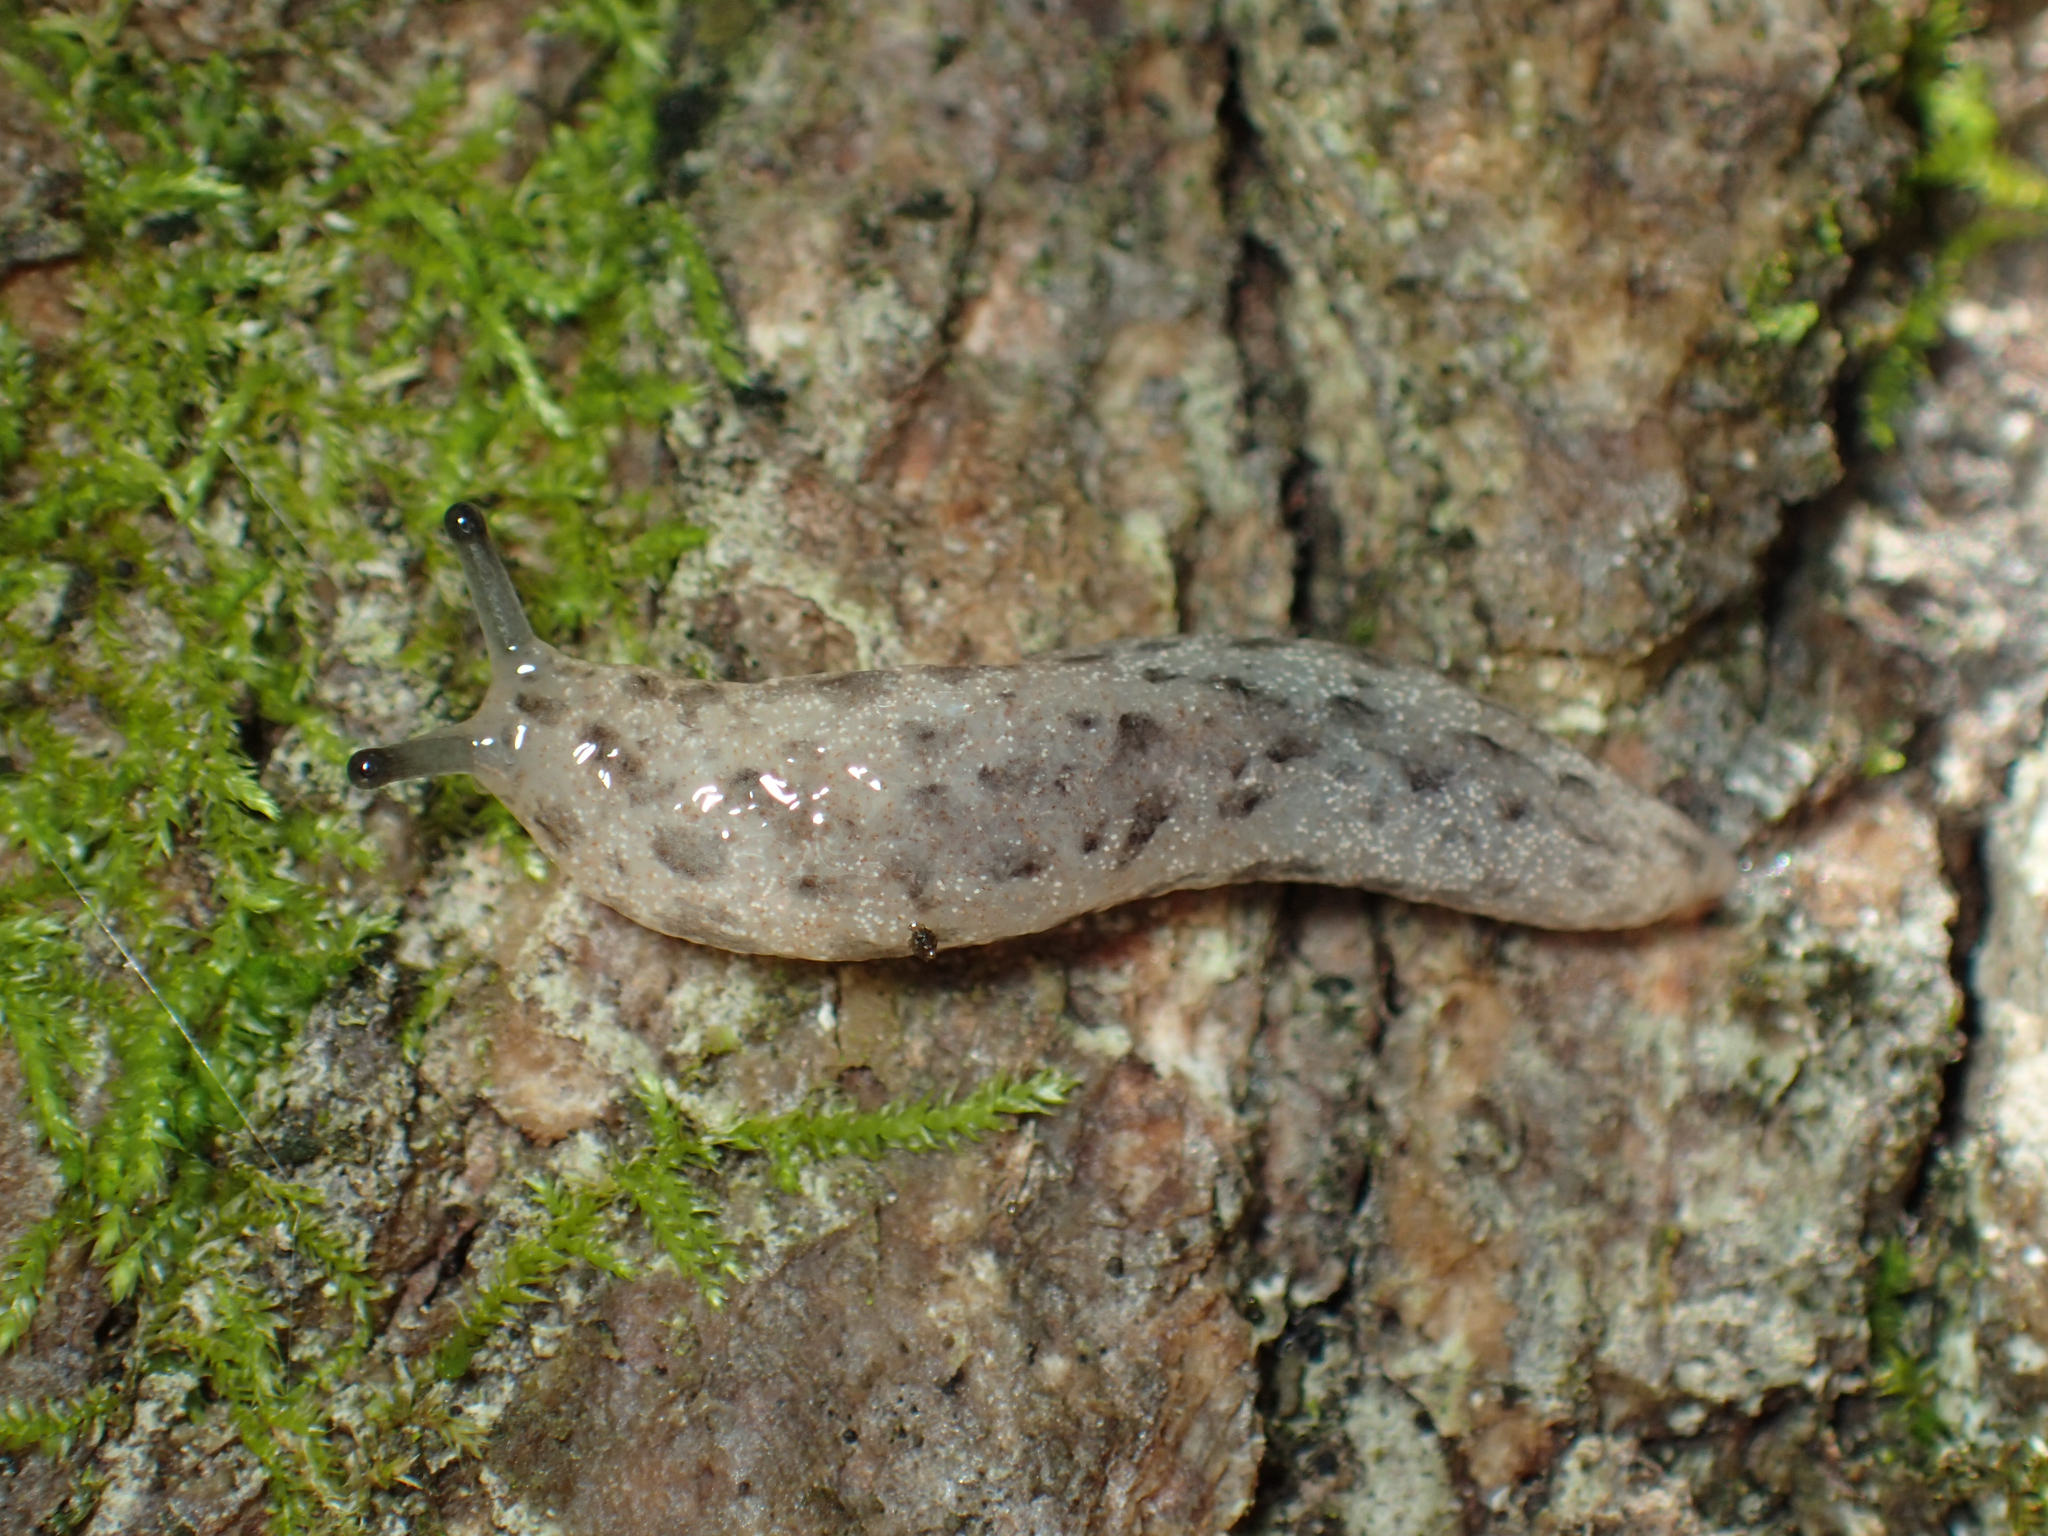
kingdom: Animalia
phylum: Mollusca
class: Gastropoda
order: Stylommatophora
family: Philomycidae
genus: Philomycus
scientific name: Philomycus togatus
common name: Toga mantleslug
